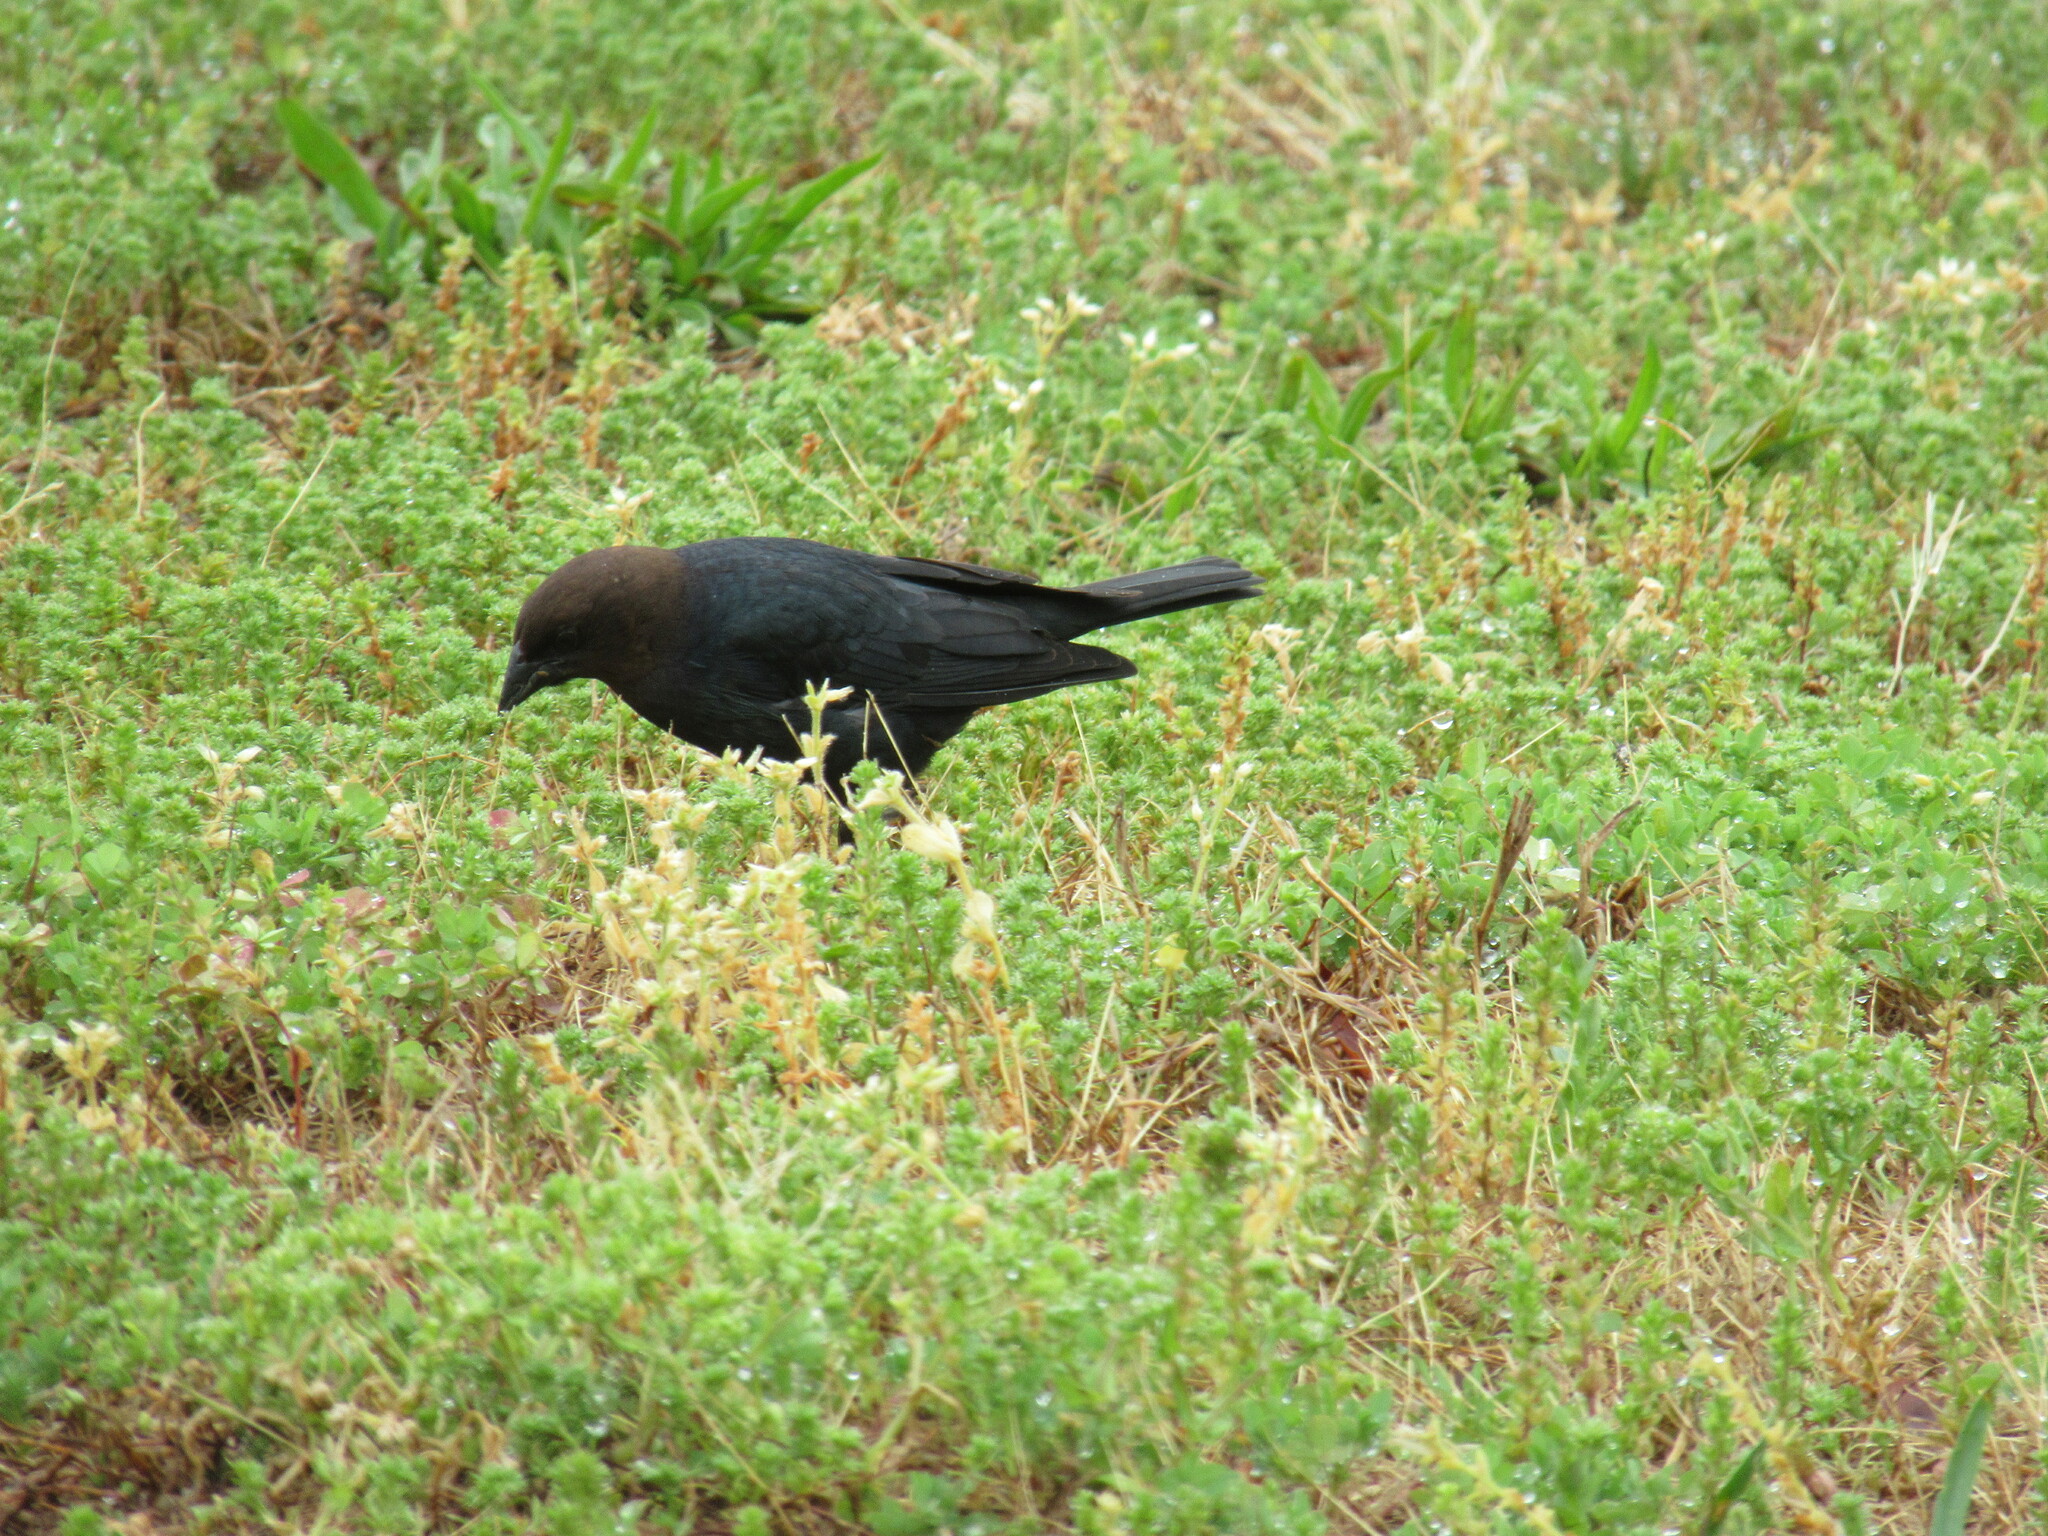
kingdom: Animalia
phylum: Chordata
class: Aves
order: Passeriformes
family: Icteridae
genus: Molothrus
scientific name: Molothrus ater
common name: Brown-headed cowbird
